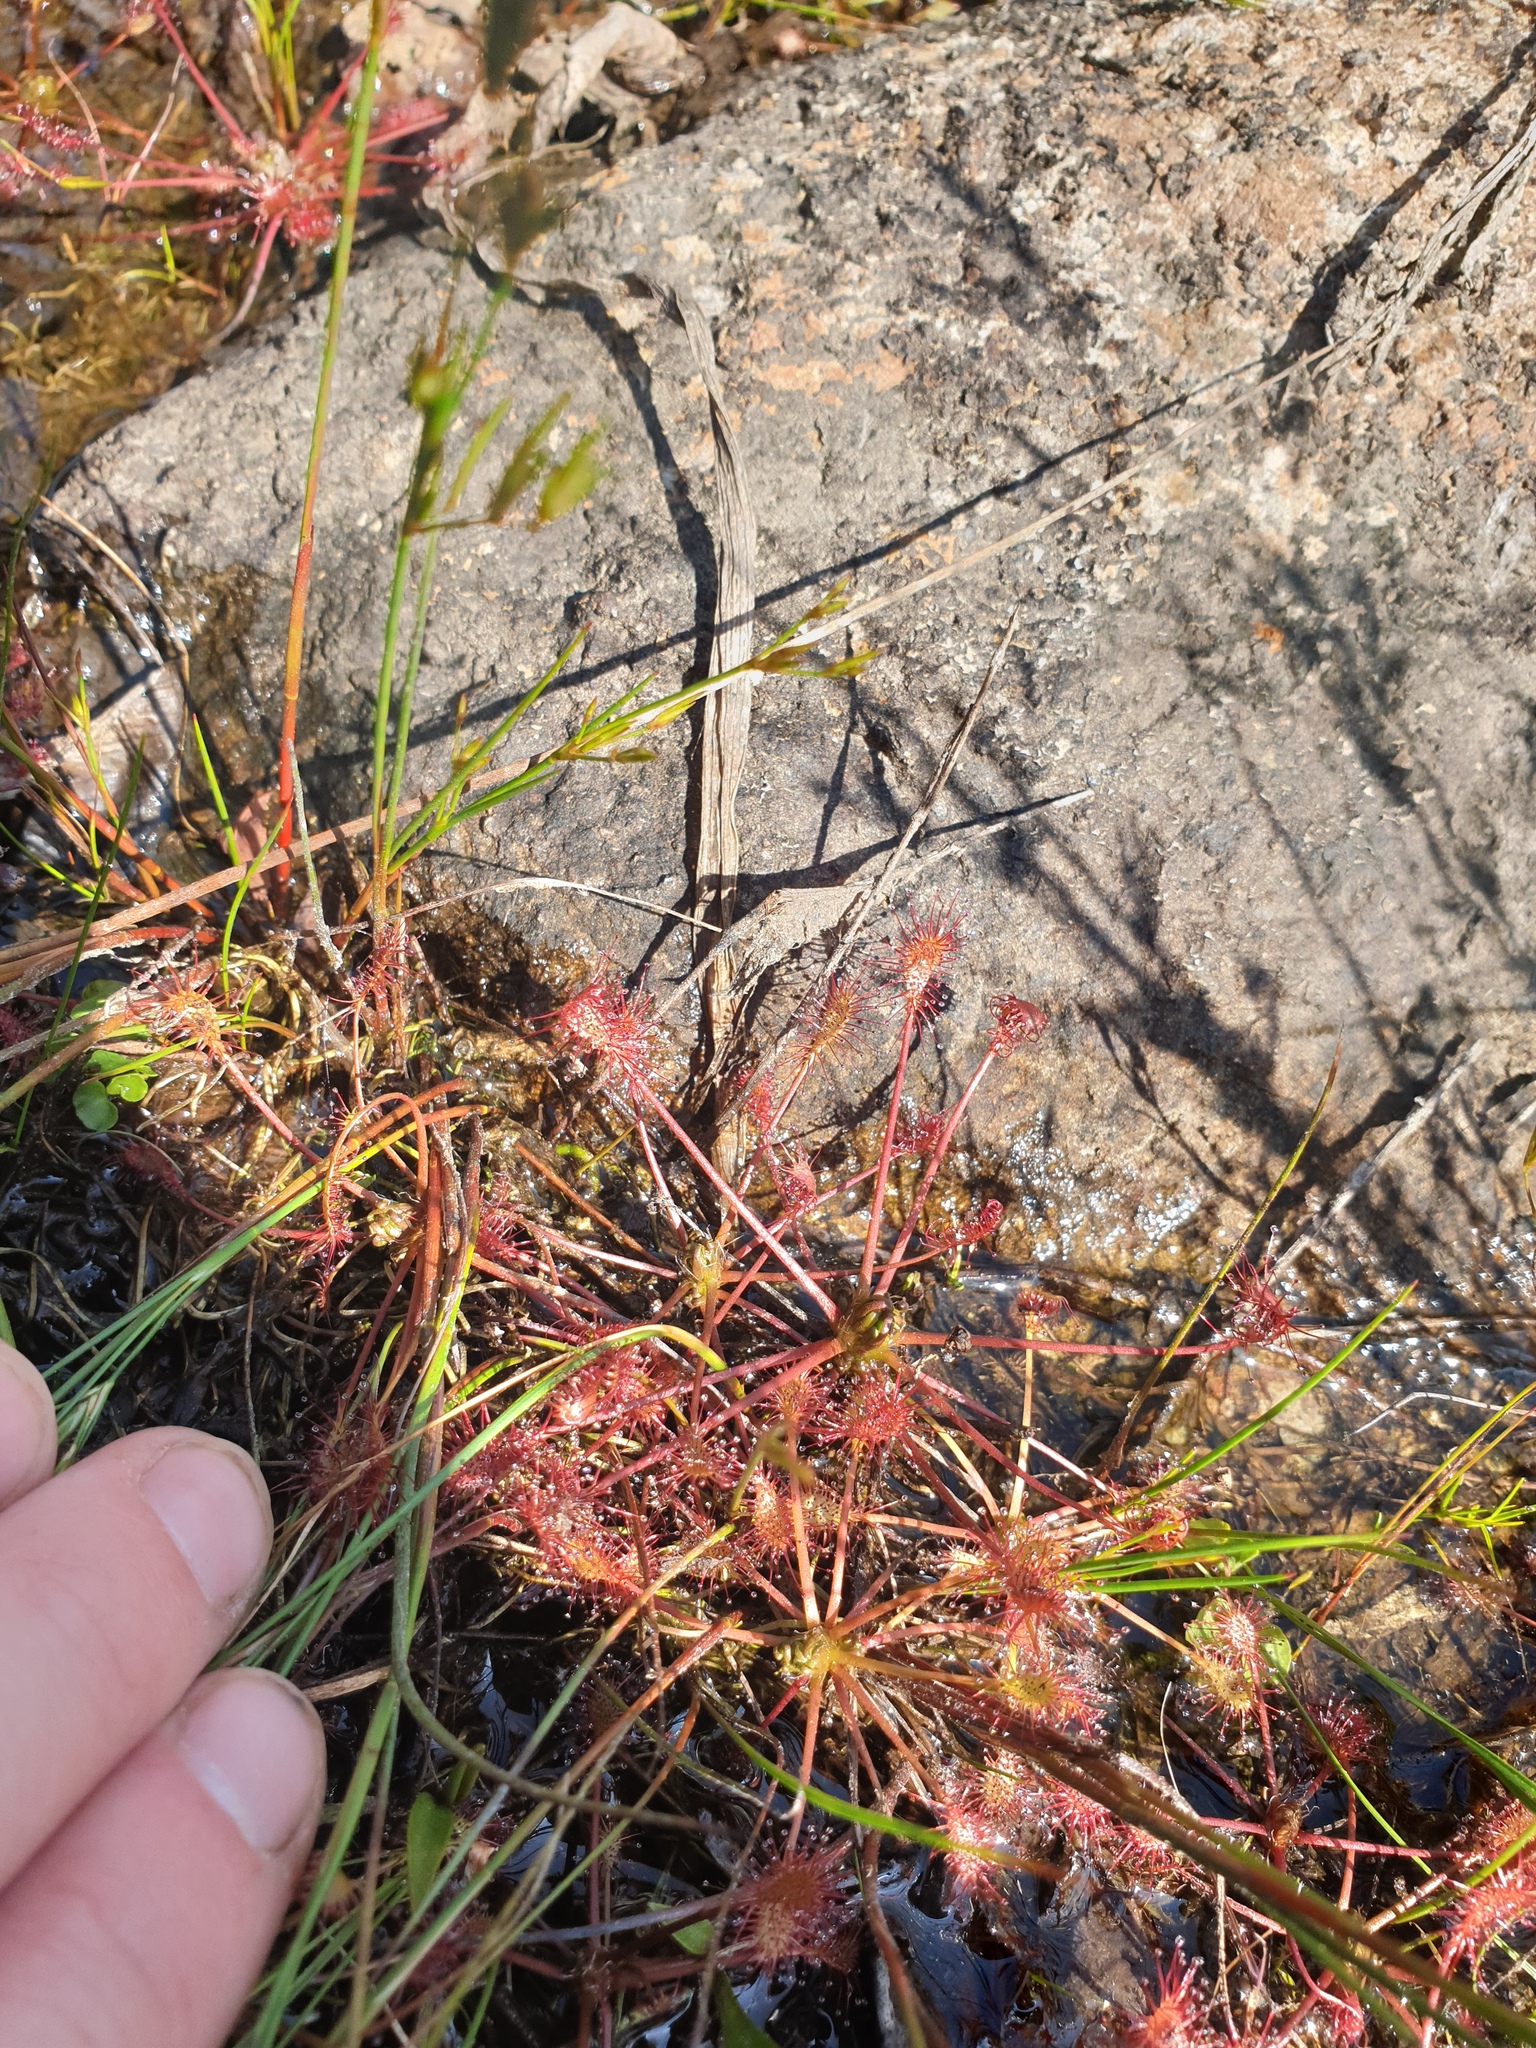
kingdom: Plantae
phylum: Tracheophyta
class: Magnoliopsida
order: Caryophyllales
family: Droseraceae
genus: Drosera
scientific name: Drosera intermedia
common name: Oblong-leaved sundew
